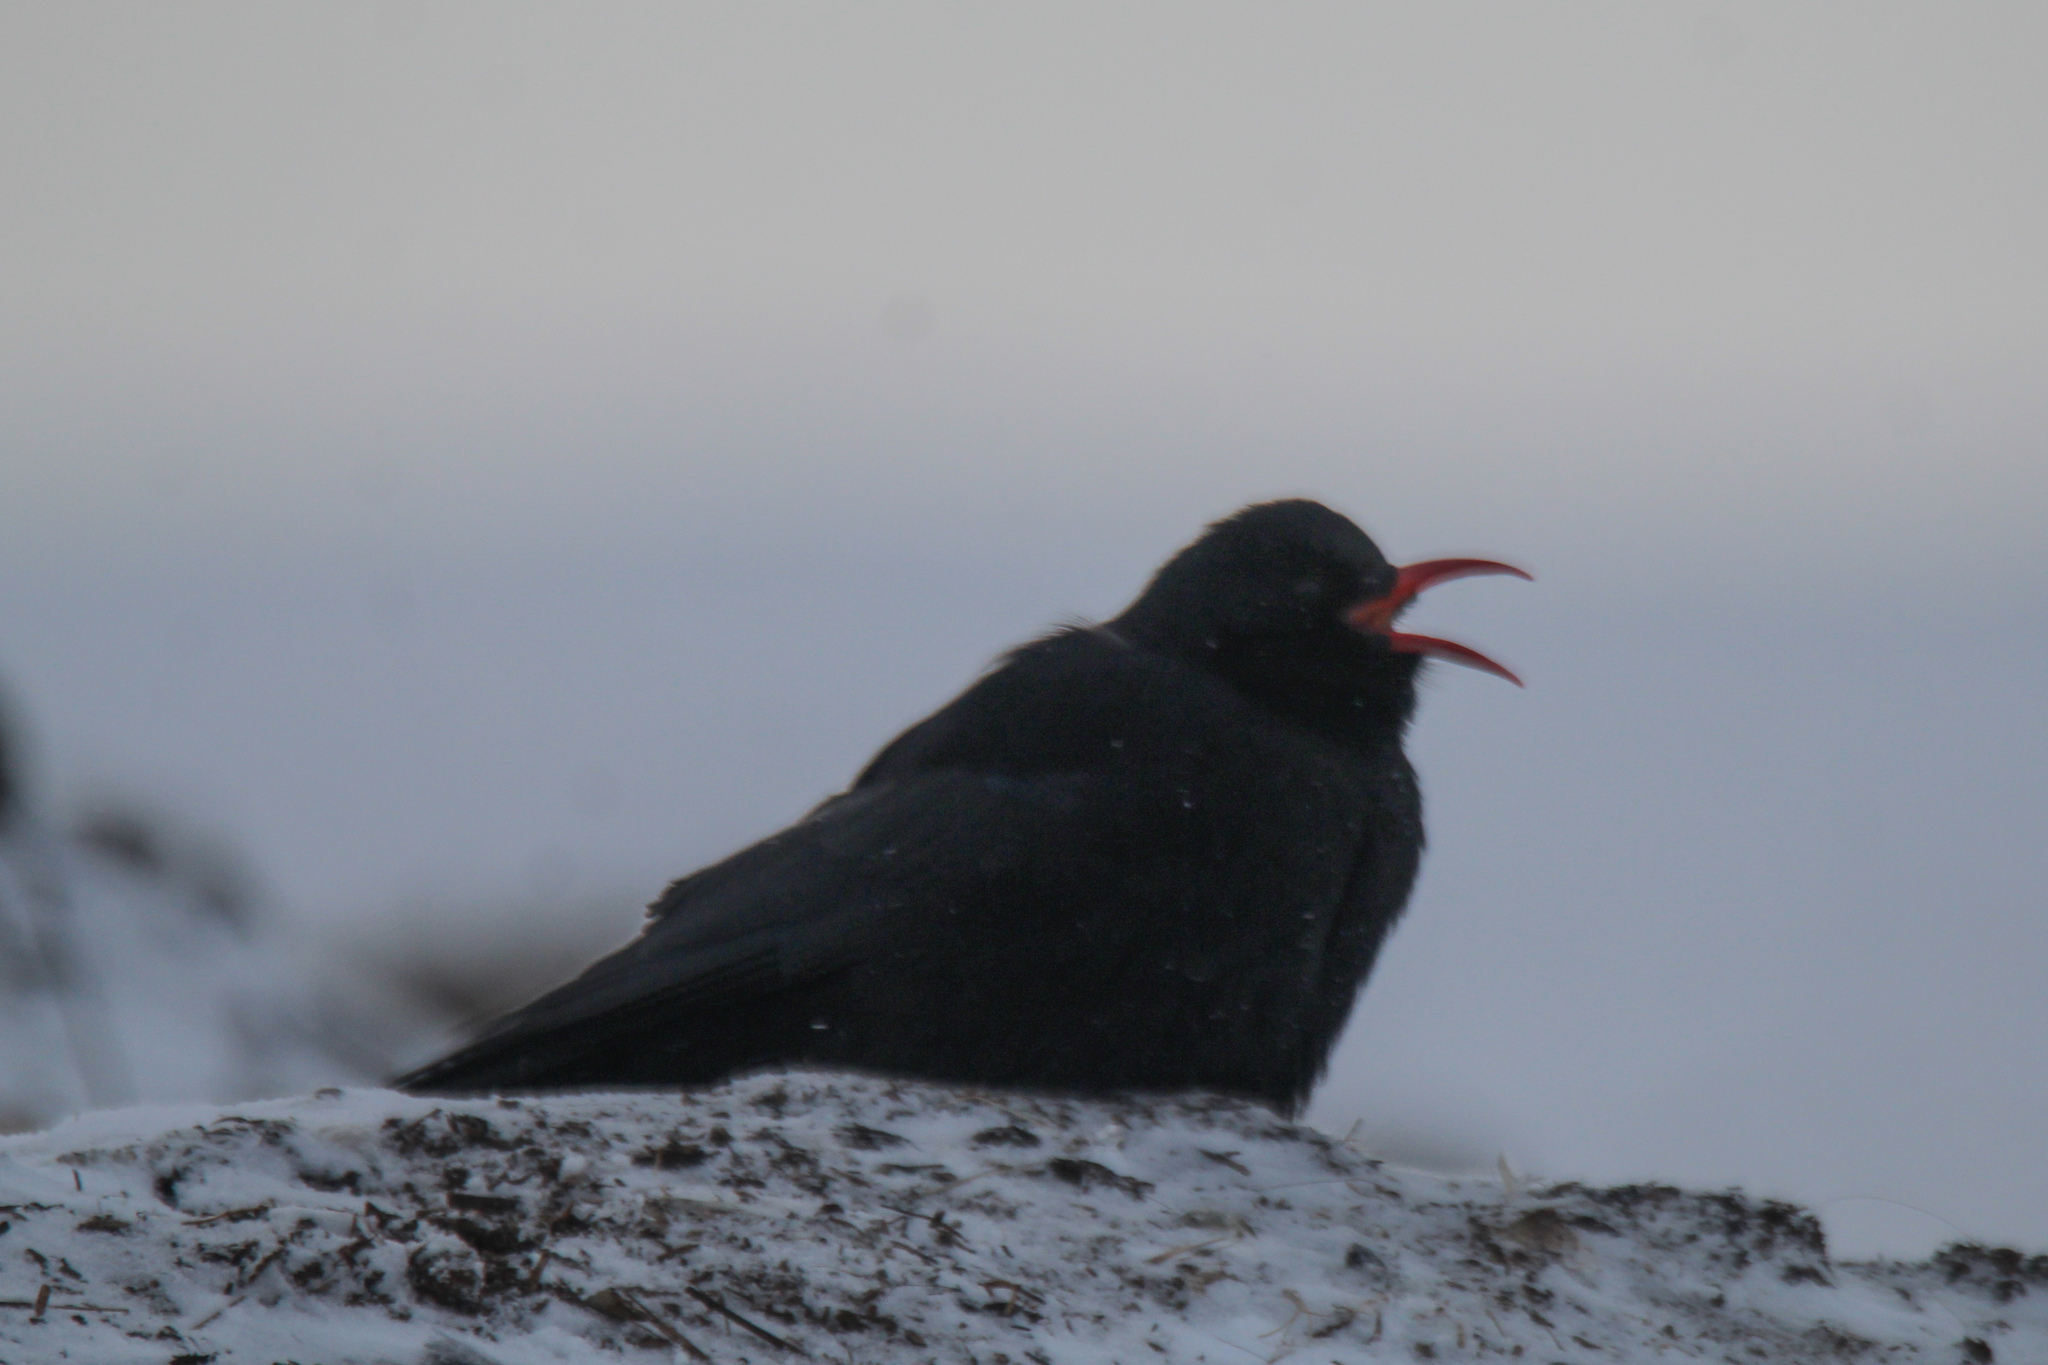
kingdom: Animalia
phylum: Chordata
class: Aves
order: Passeriformes
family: Corvidae
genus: Pyrrhocorax
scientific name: Pyrrhocorax pyrrhocorax
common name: Red-billed chough
